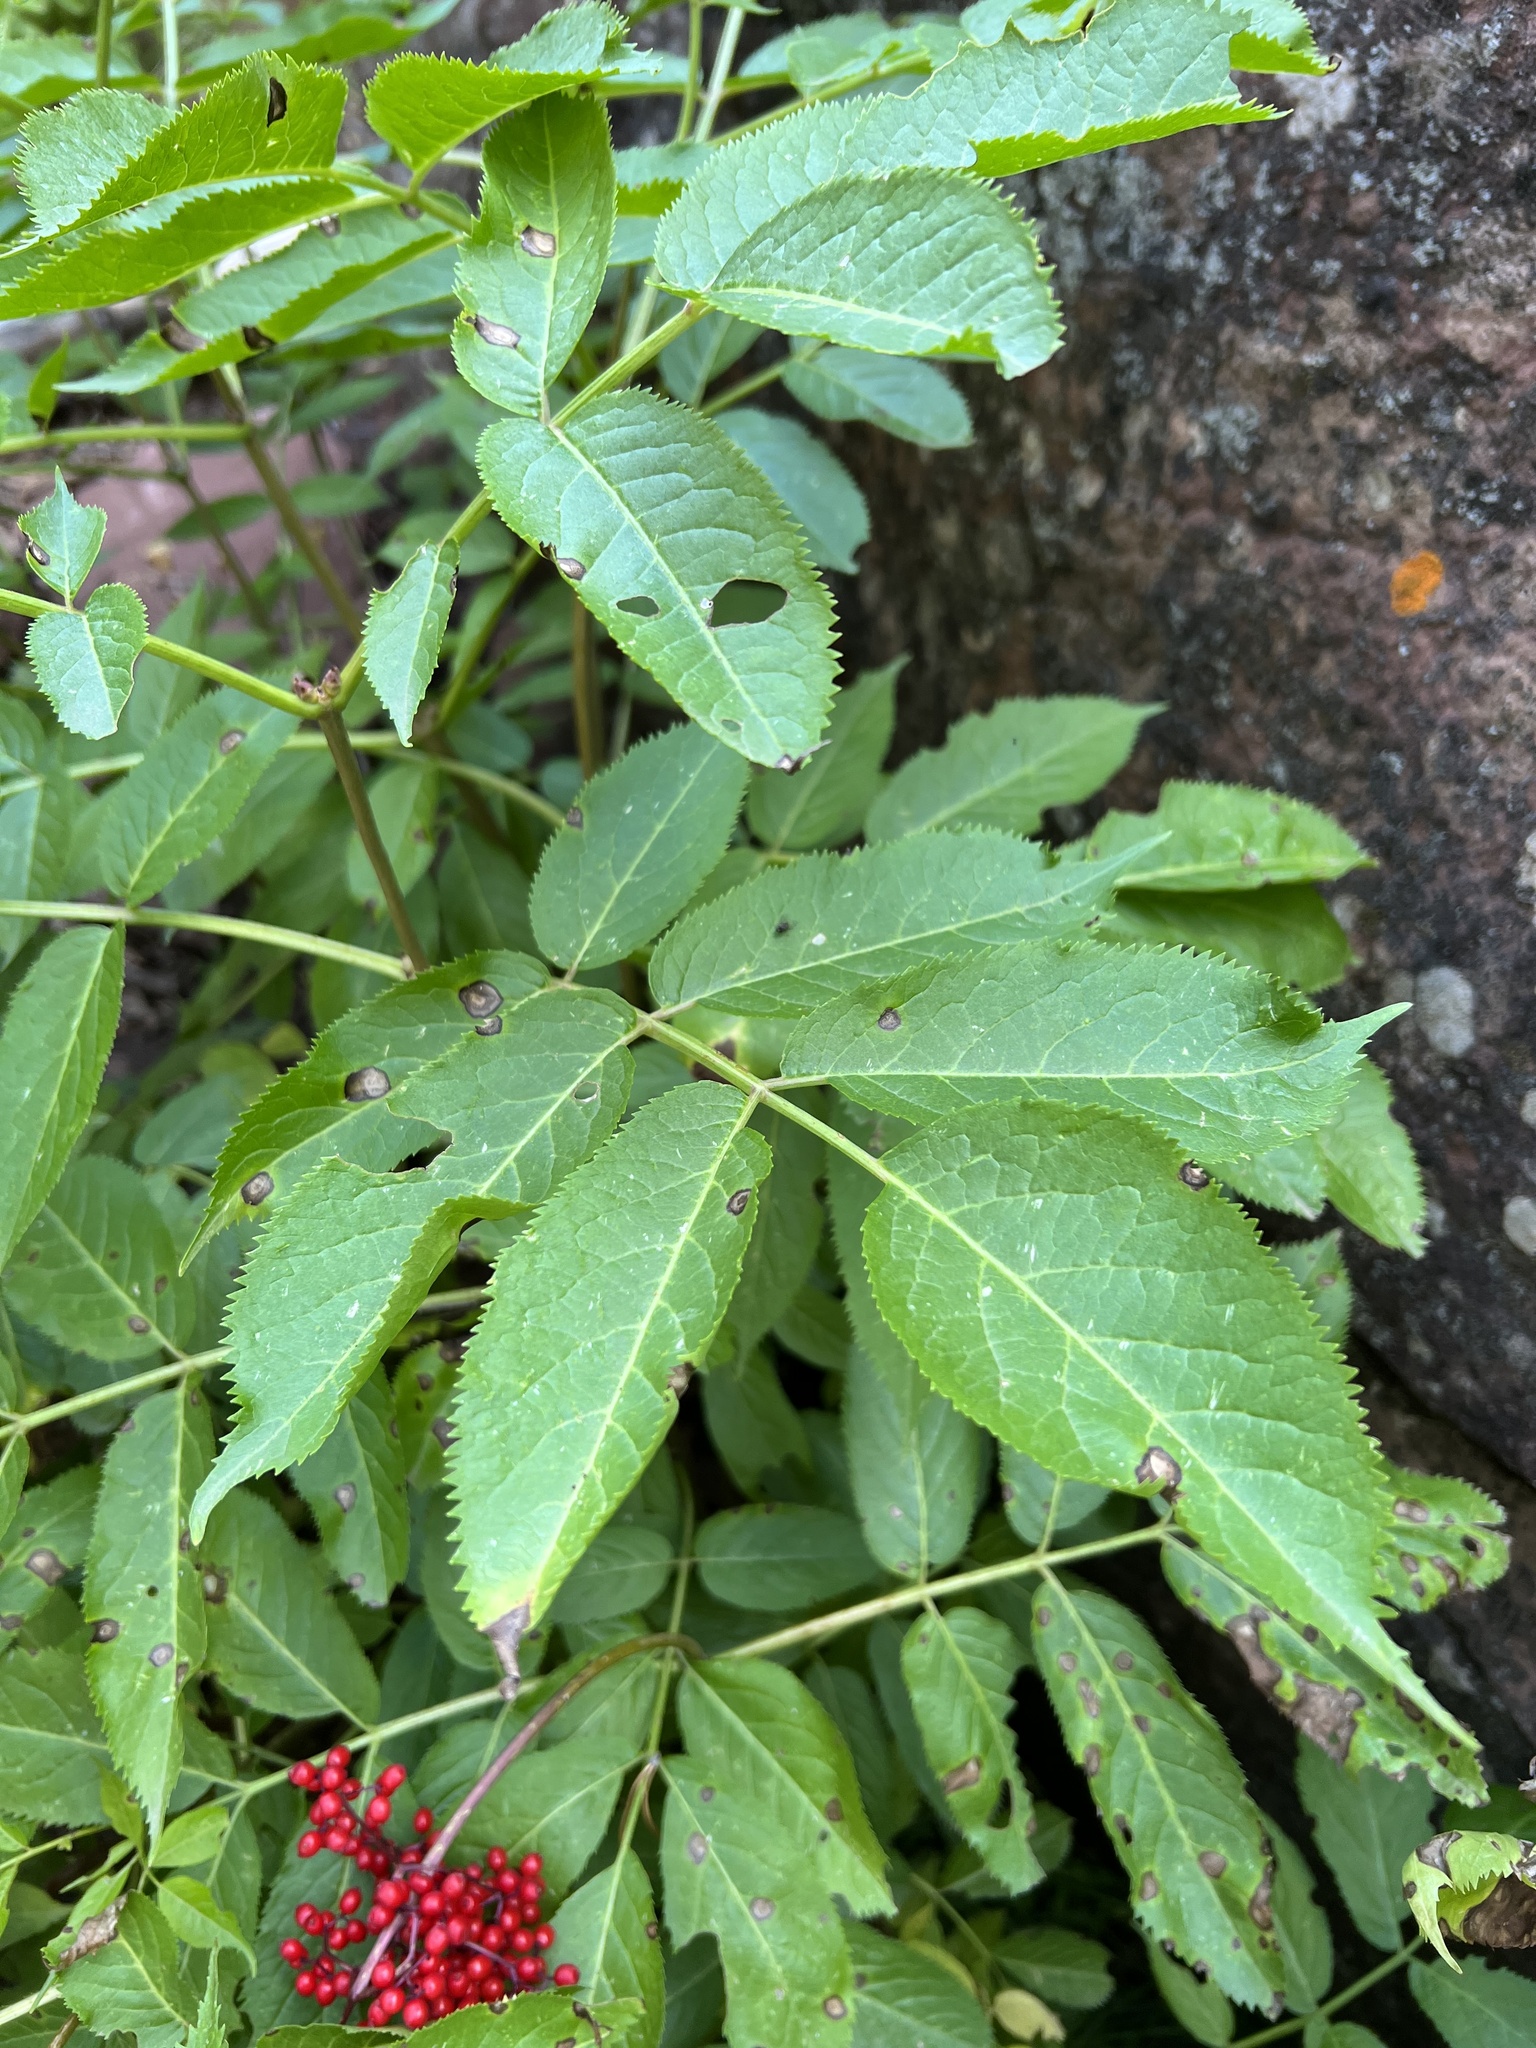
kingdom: Plantae
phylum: Tracheophyta
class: Magnoliopsida
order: Dipsacales
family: Viburnaceae
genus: Sambucus
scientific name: Sambucus racemosa
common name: Red-berried elder
